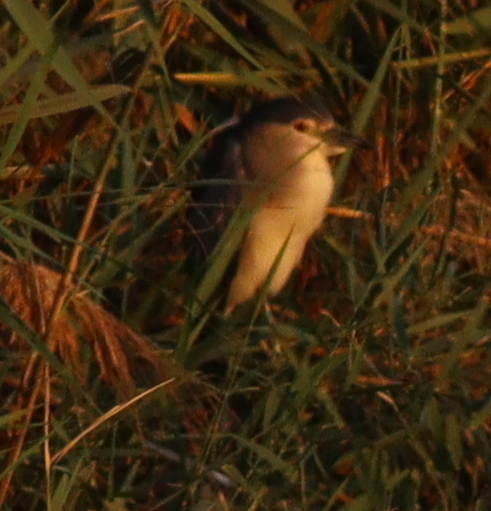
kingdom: Animalia
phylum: Chordata
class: Aves
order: Pelecaniformes
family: Ardeidae
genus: Nycticorax
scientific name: Nycticorax nycticorax
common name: Black-crowned night heron
